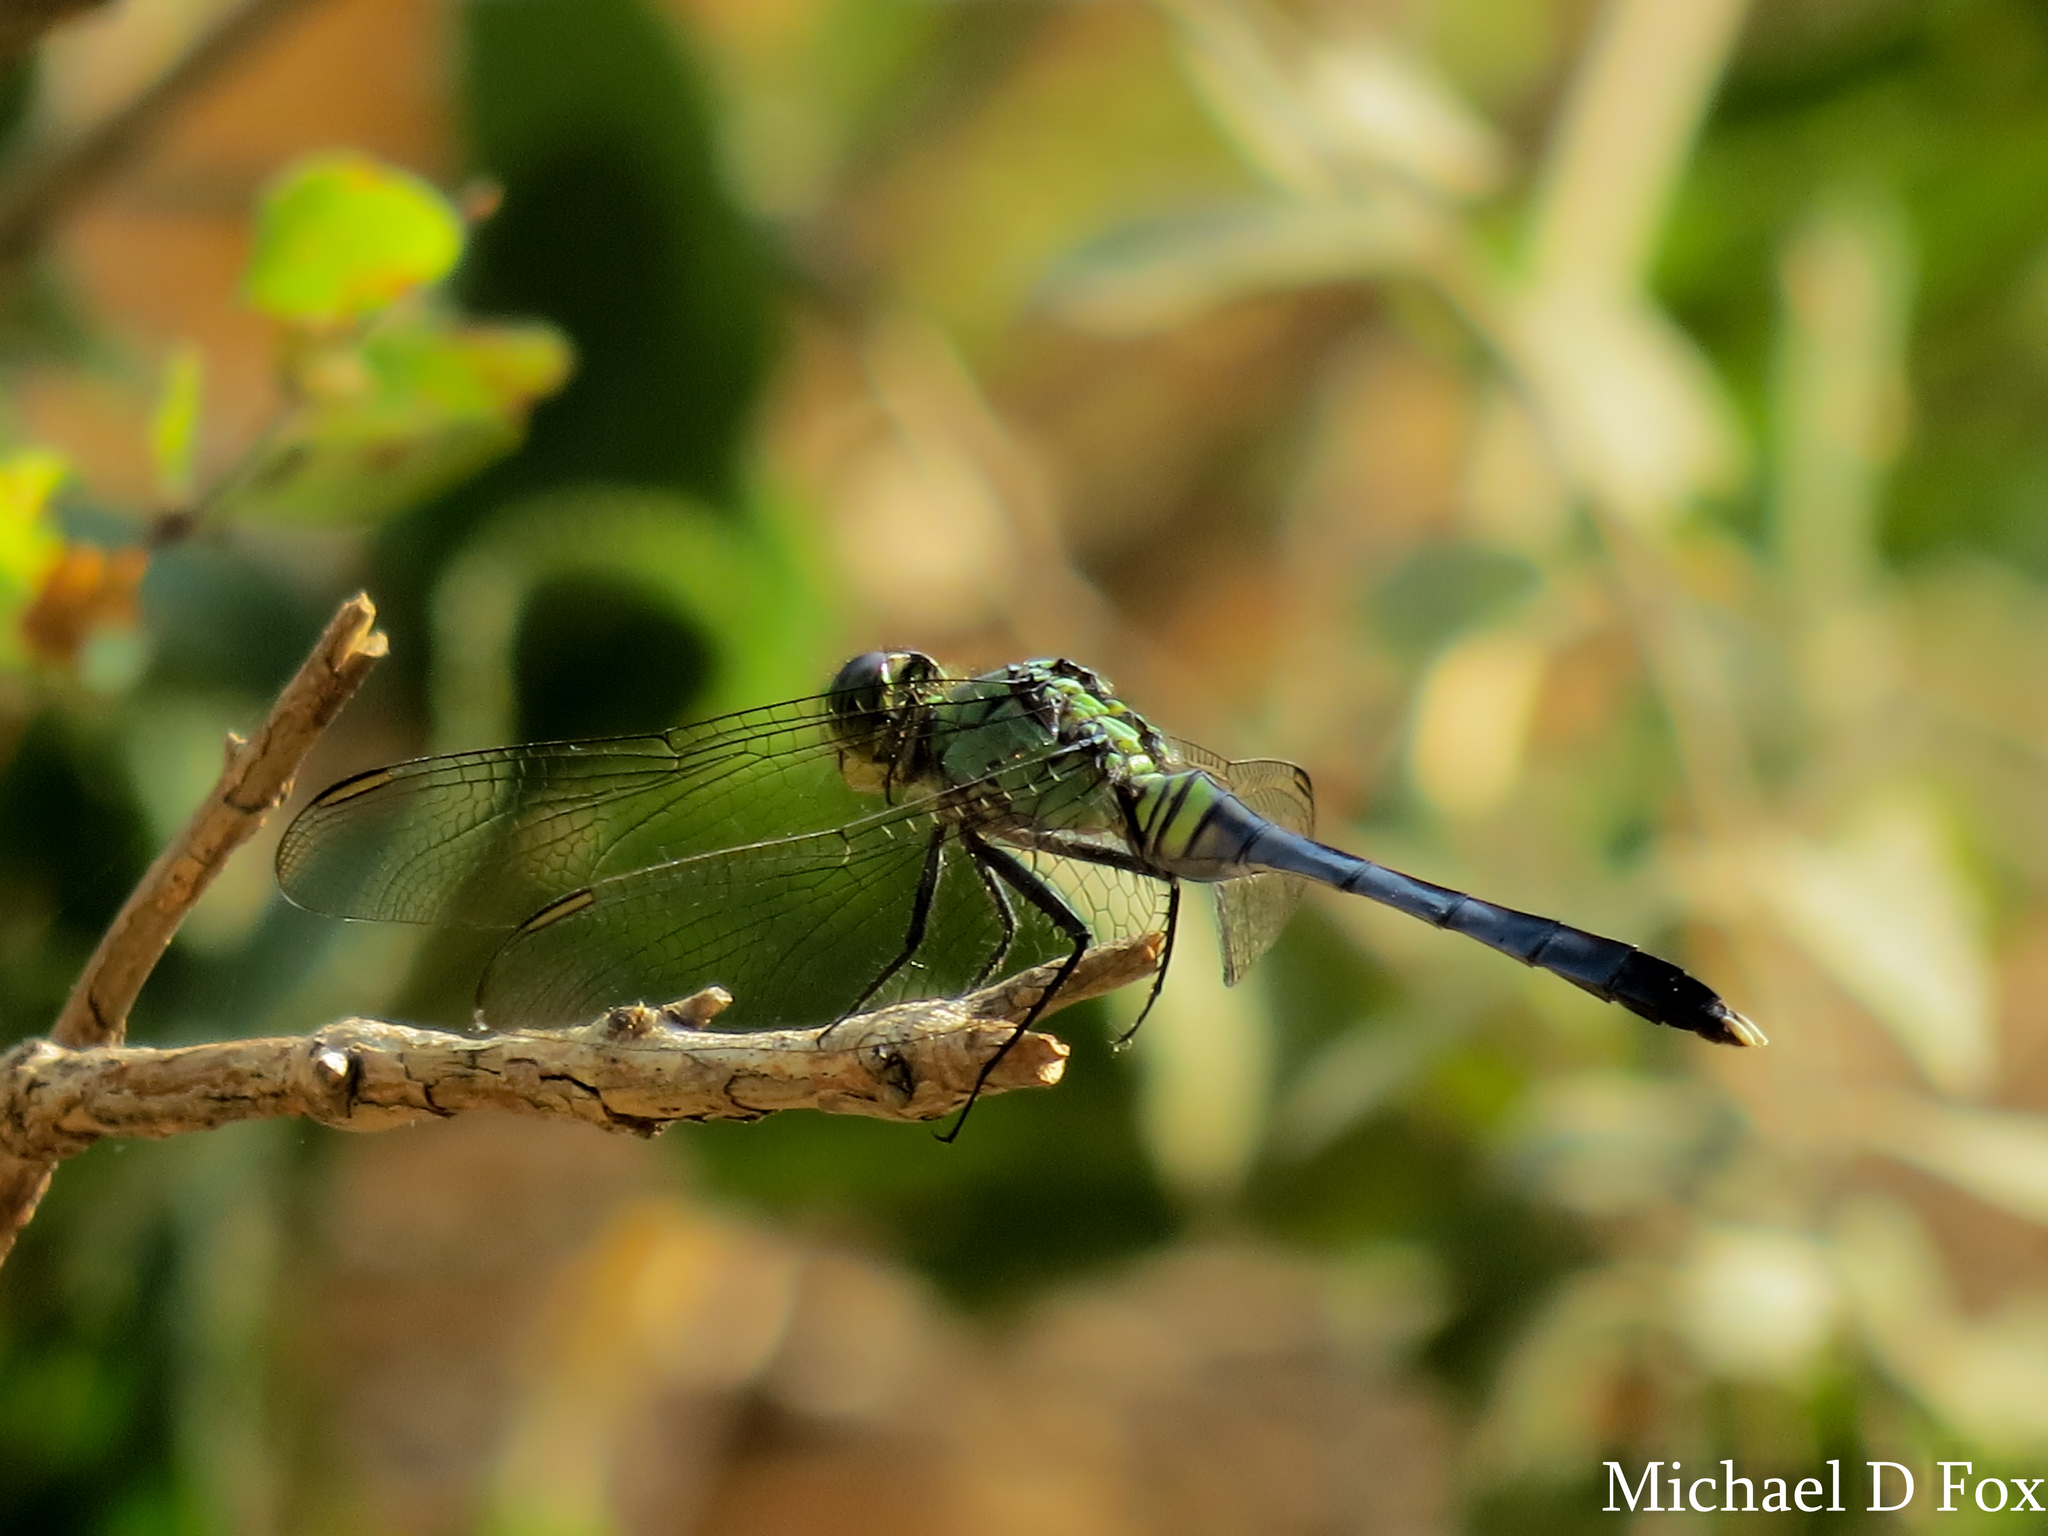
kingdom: Animalia
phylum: Arthropoda
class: Insecta
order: Odonata
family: Libellulidae
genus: Erythemis
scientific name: Erythemis simplicicollis
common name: Eastern pondhawk
